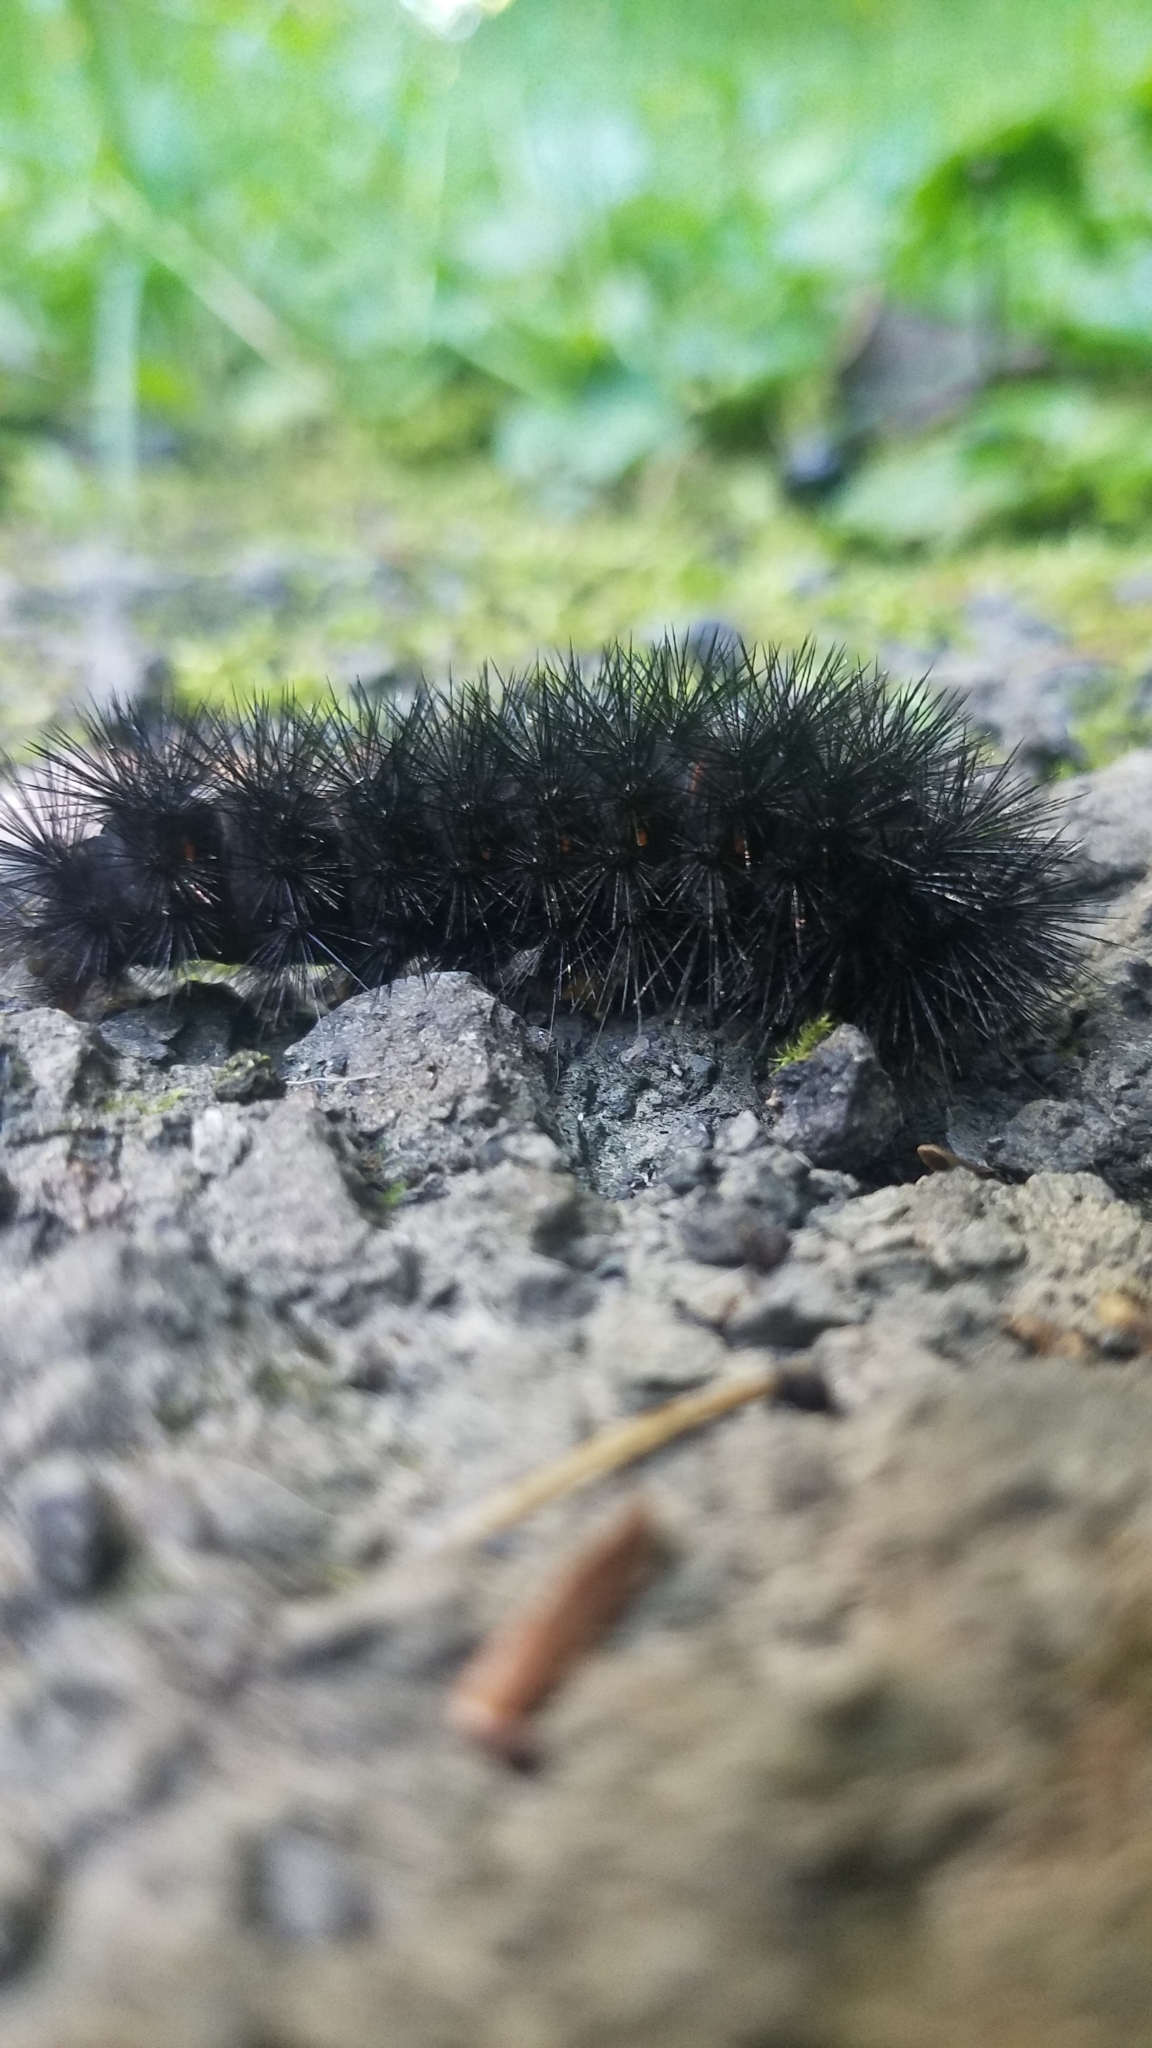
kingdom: Animalia
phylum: Arthropoda
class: Insecta
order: Lepidoptera
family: Erebidae
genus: Hypercompe
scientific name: Hypercompe scribonia
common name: Giant leopard moth
